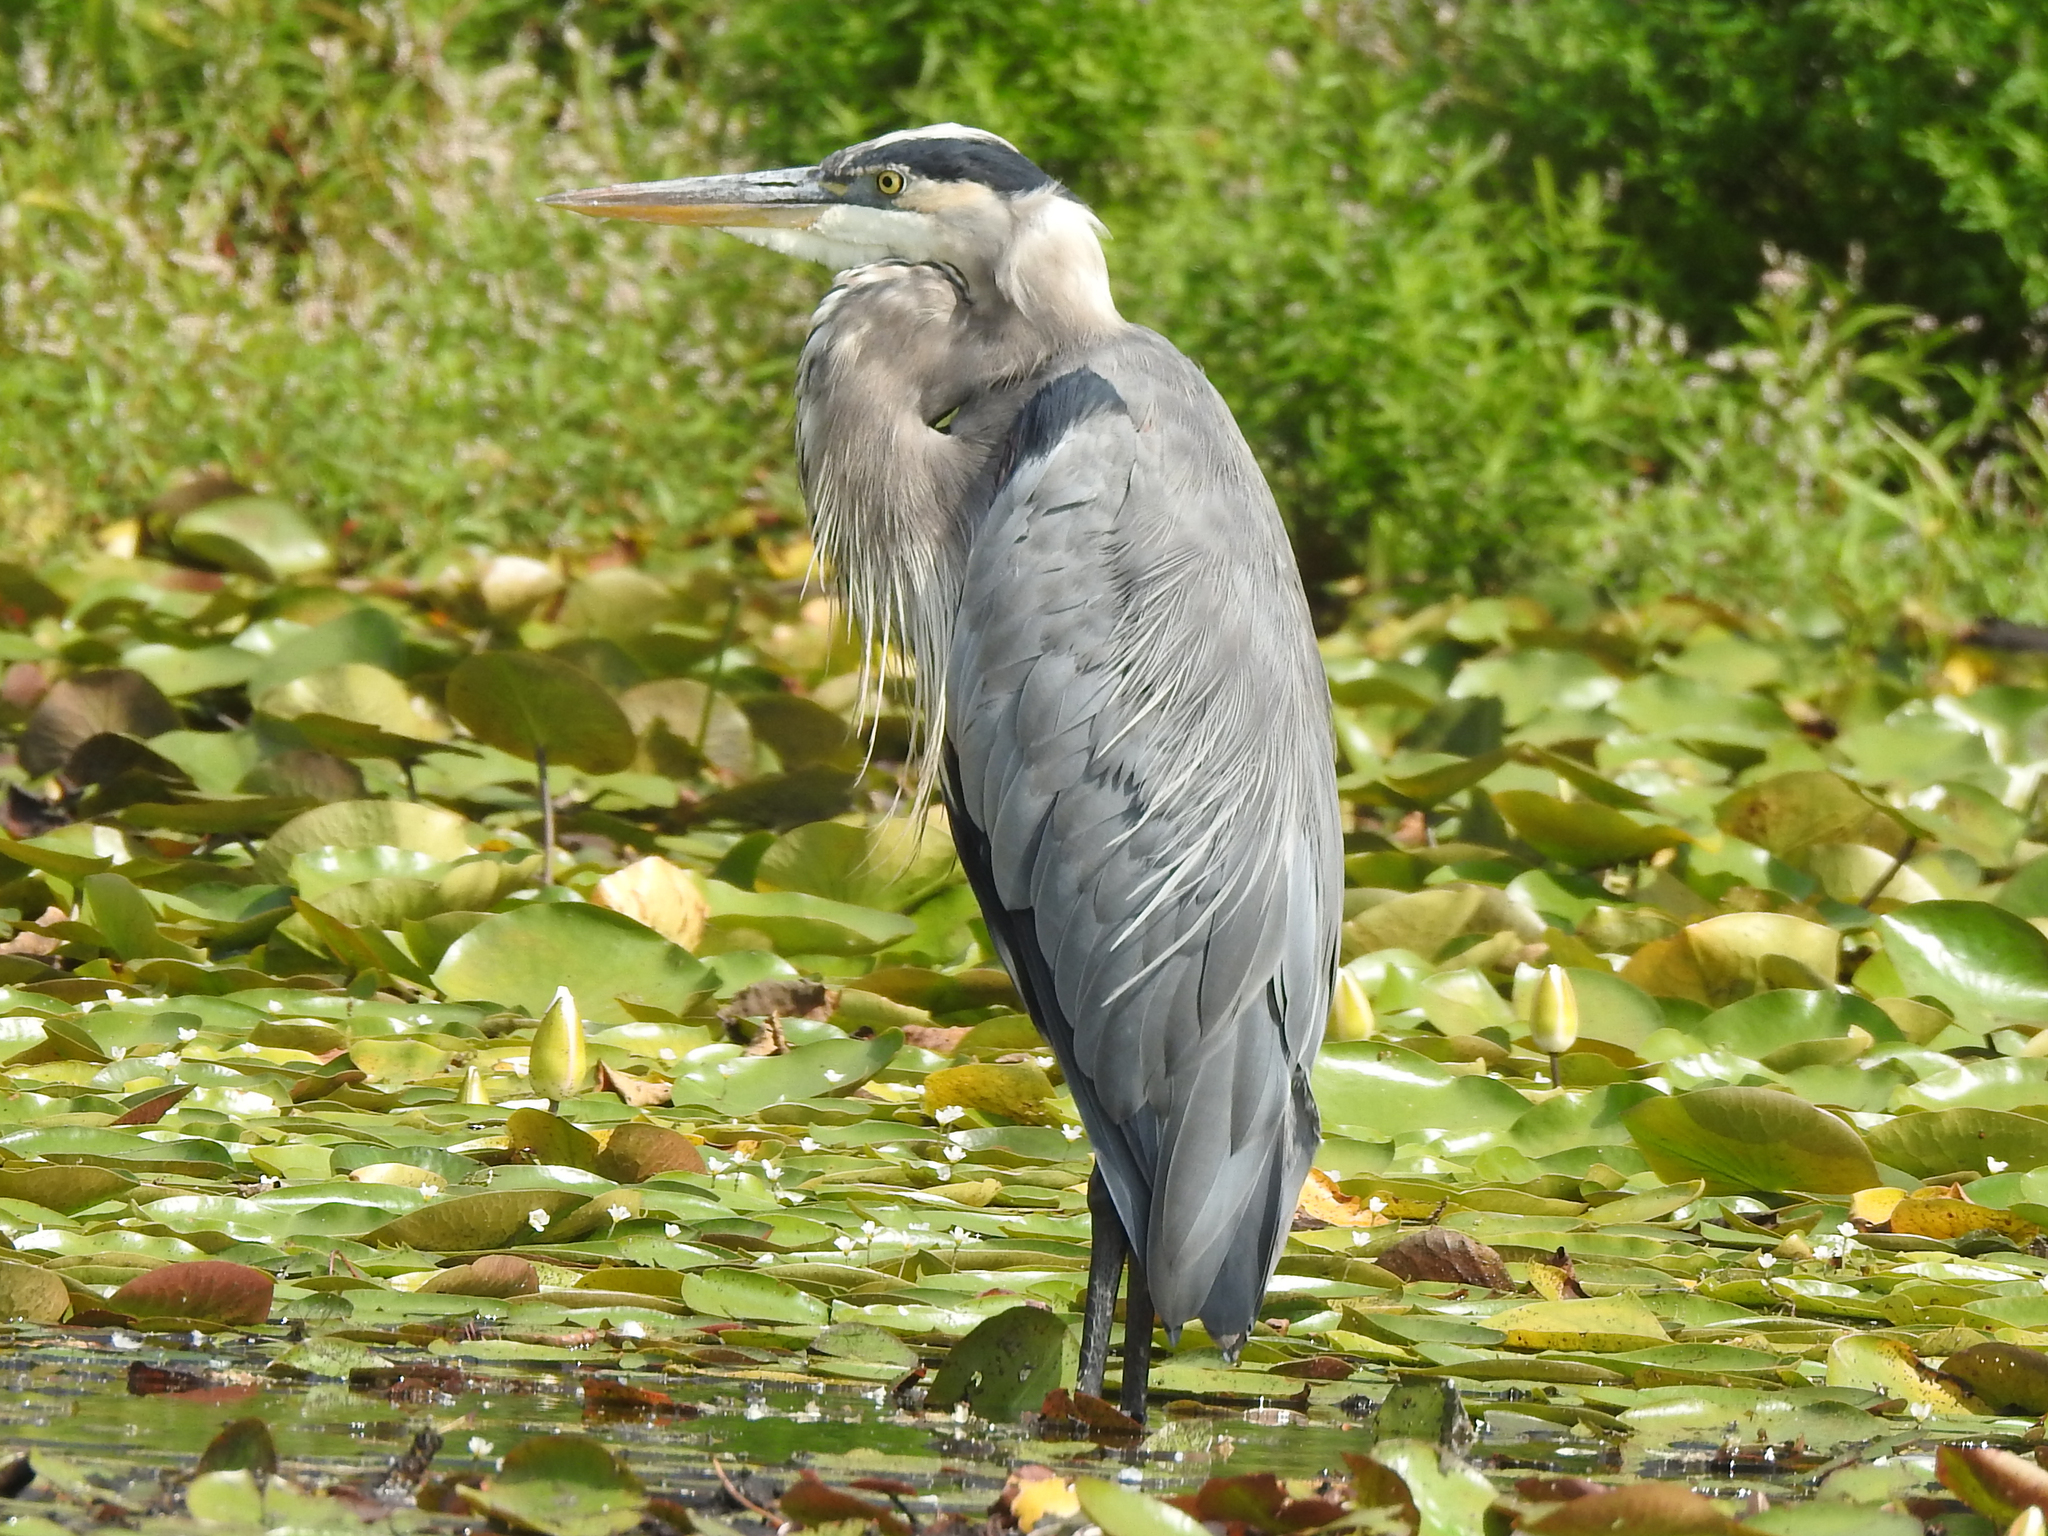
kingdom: Animalia
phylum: Chordata
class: Aves
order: Pelecaniformes
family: Ardeidae
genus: Ardea
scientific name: Ardea herodias
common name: Great blue heron
